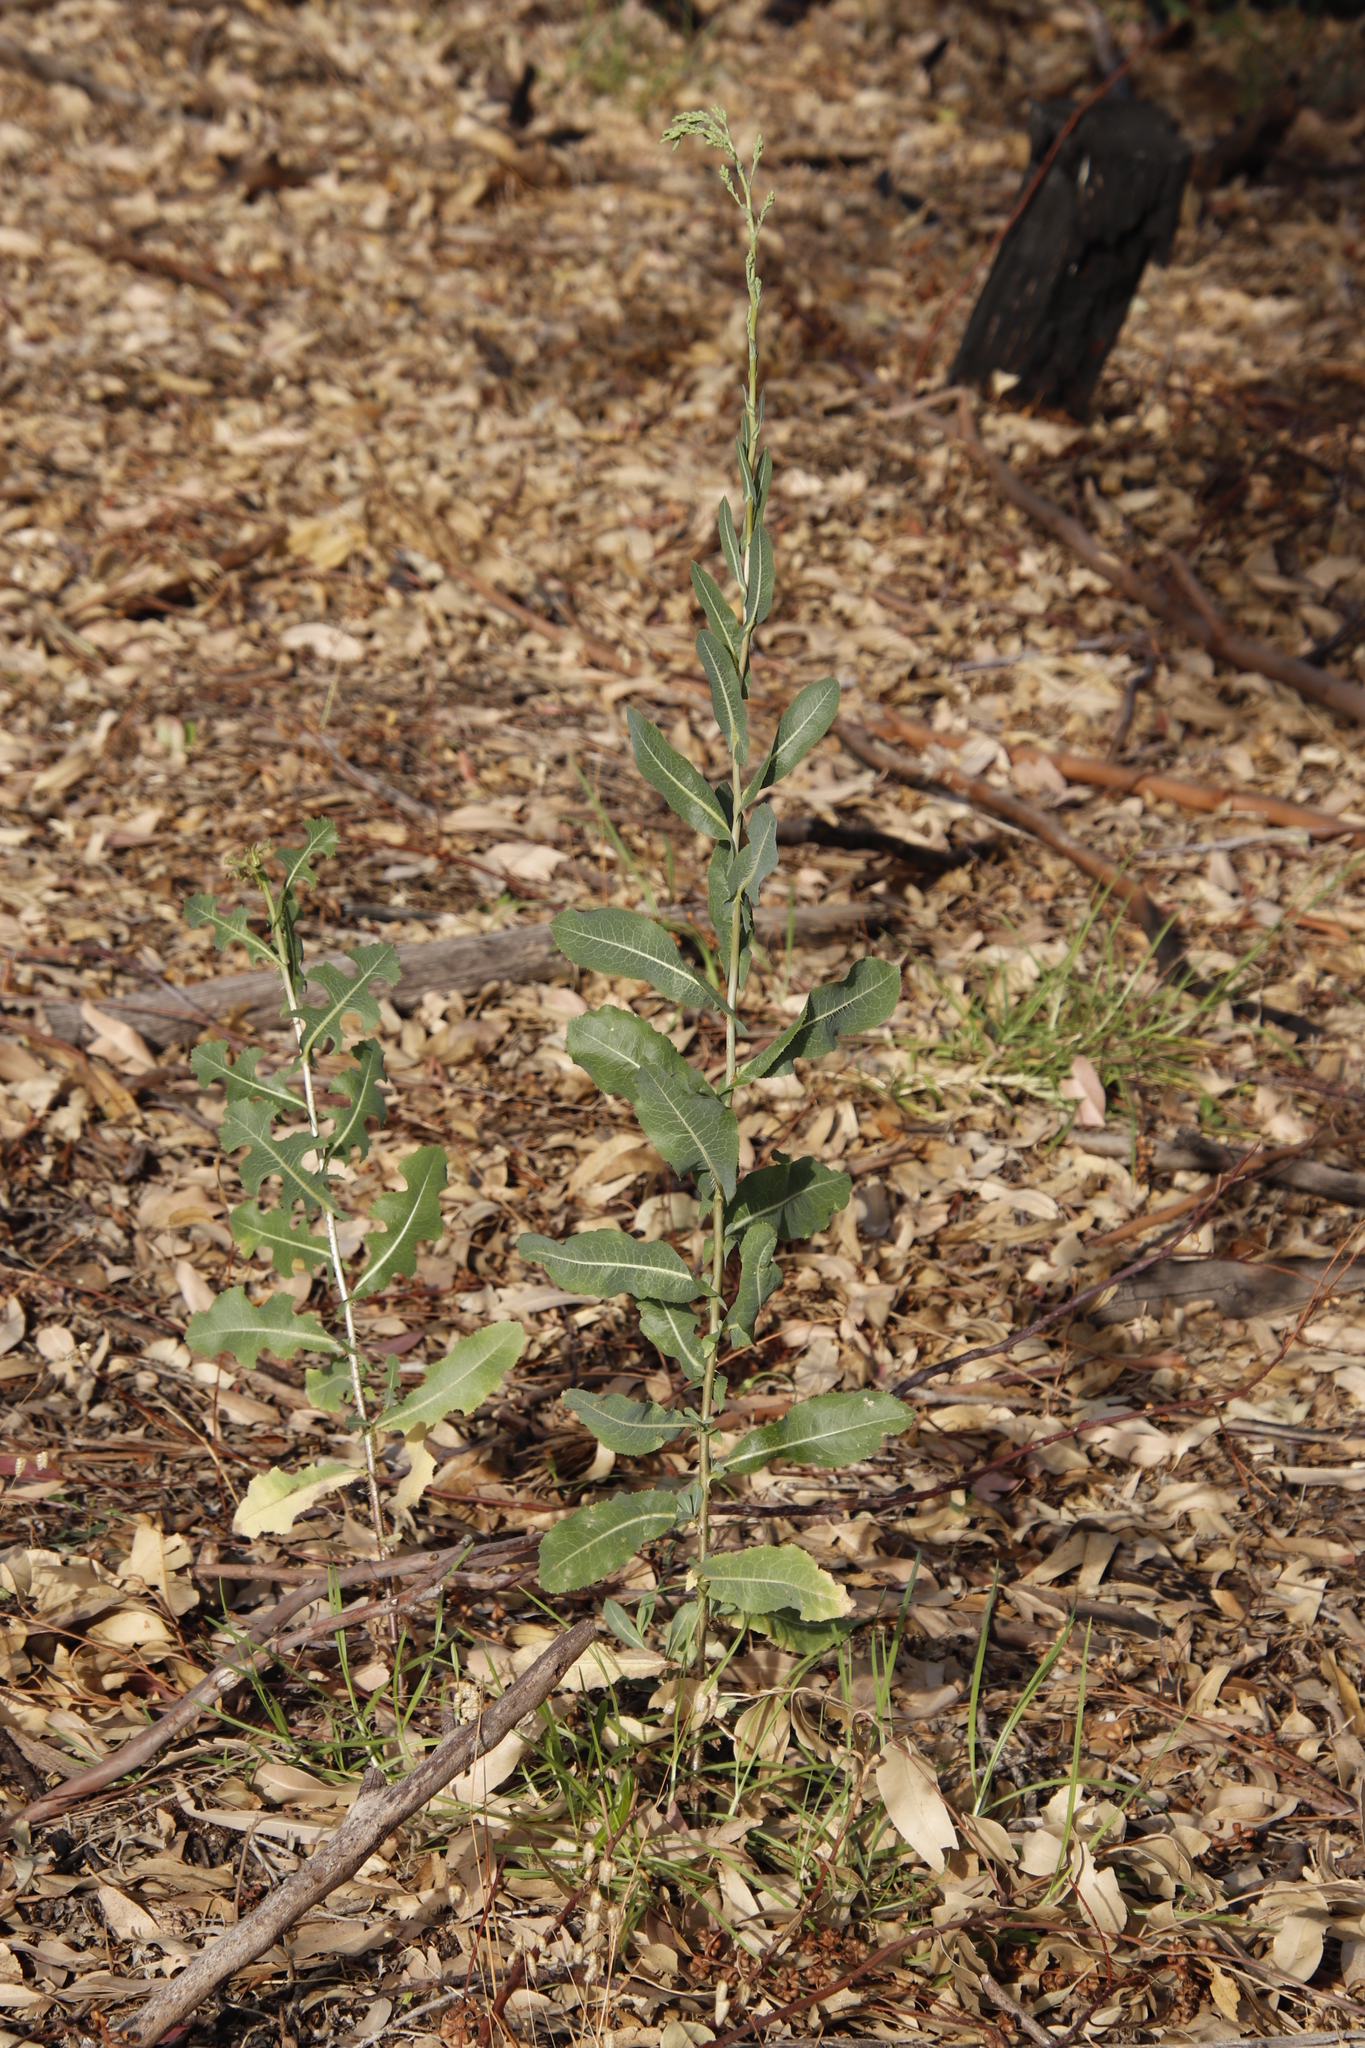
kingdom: Plantae
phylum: Tracheophyta
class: Magnoliopsida
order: Asterales
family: Asteraceae
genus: Lactuca
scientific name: Lactuca serriola
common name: Prickly lettuce
